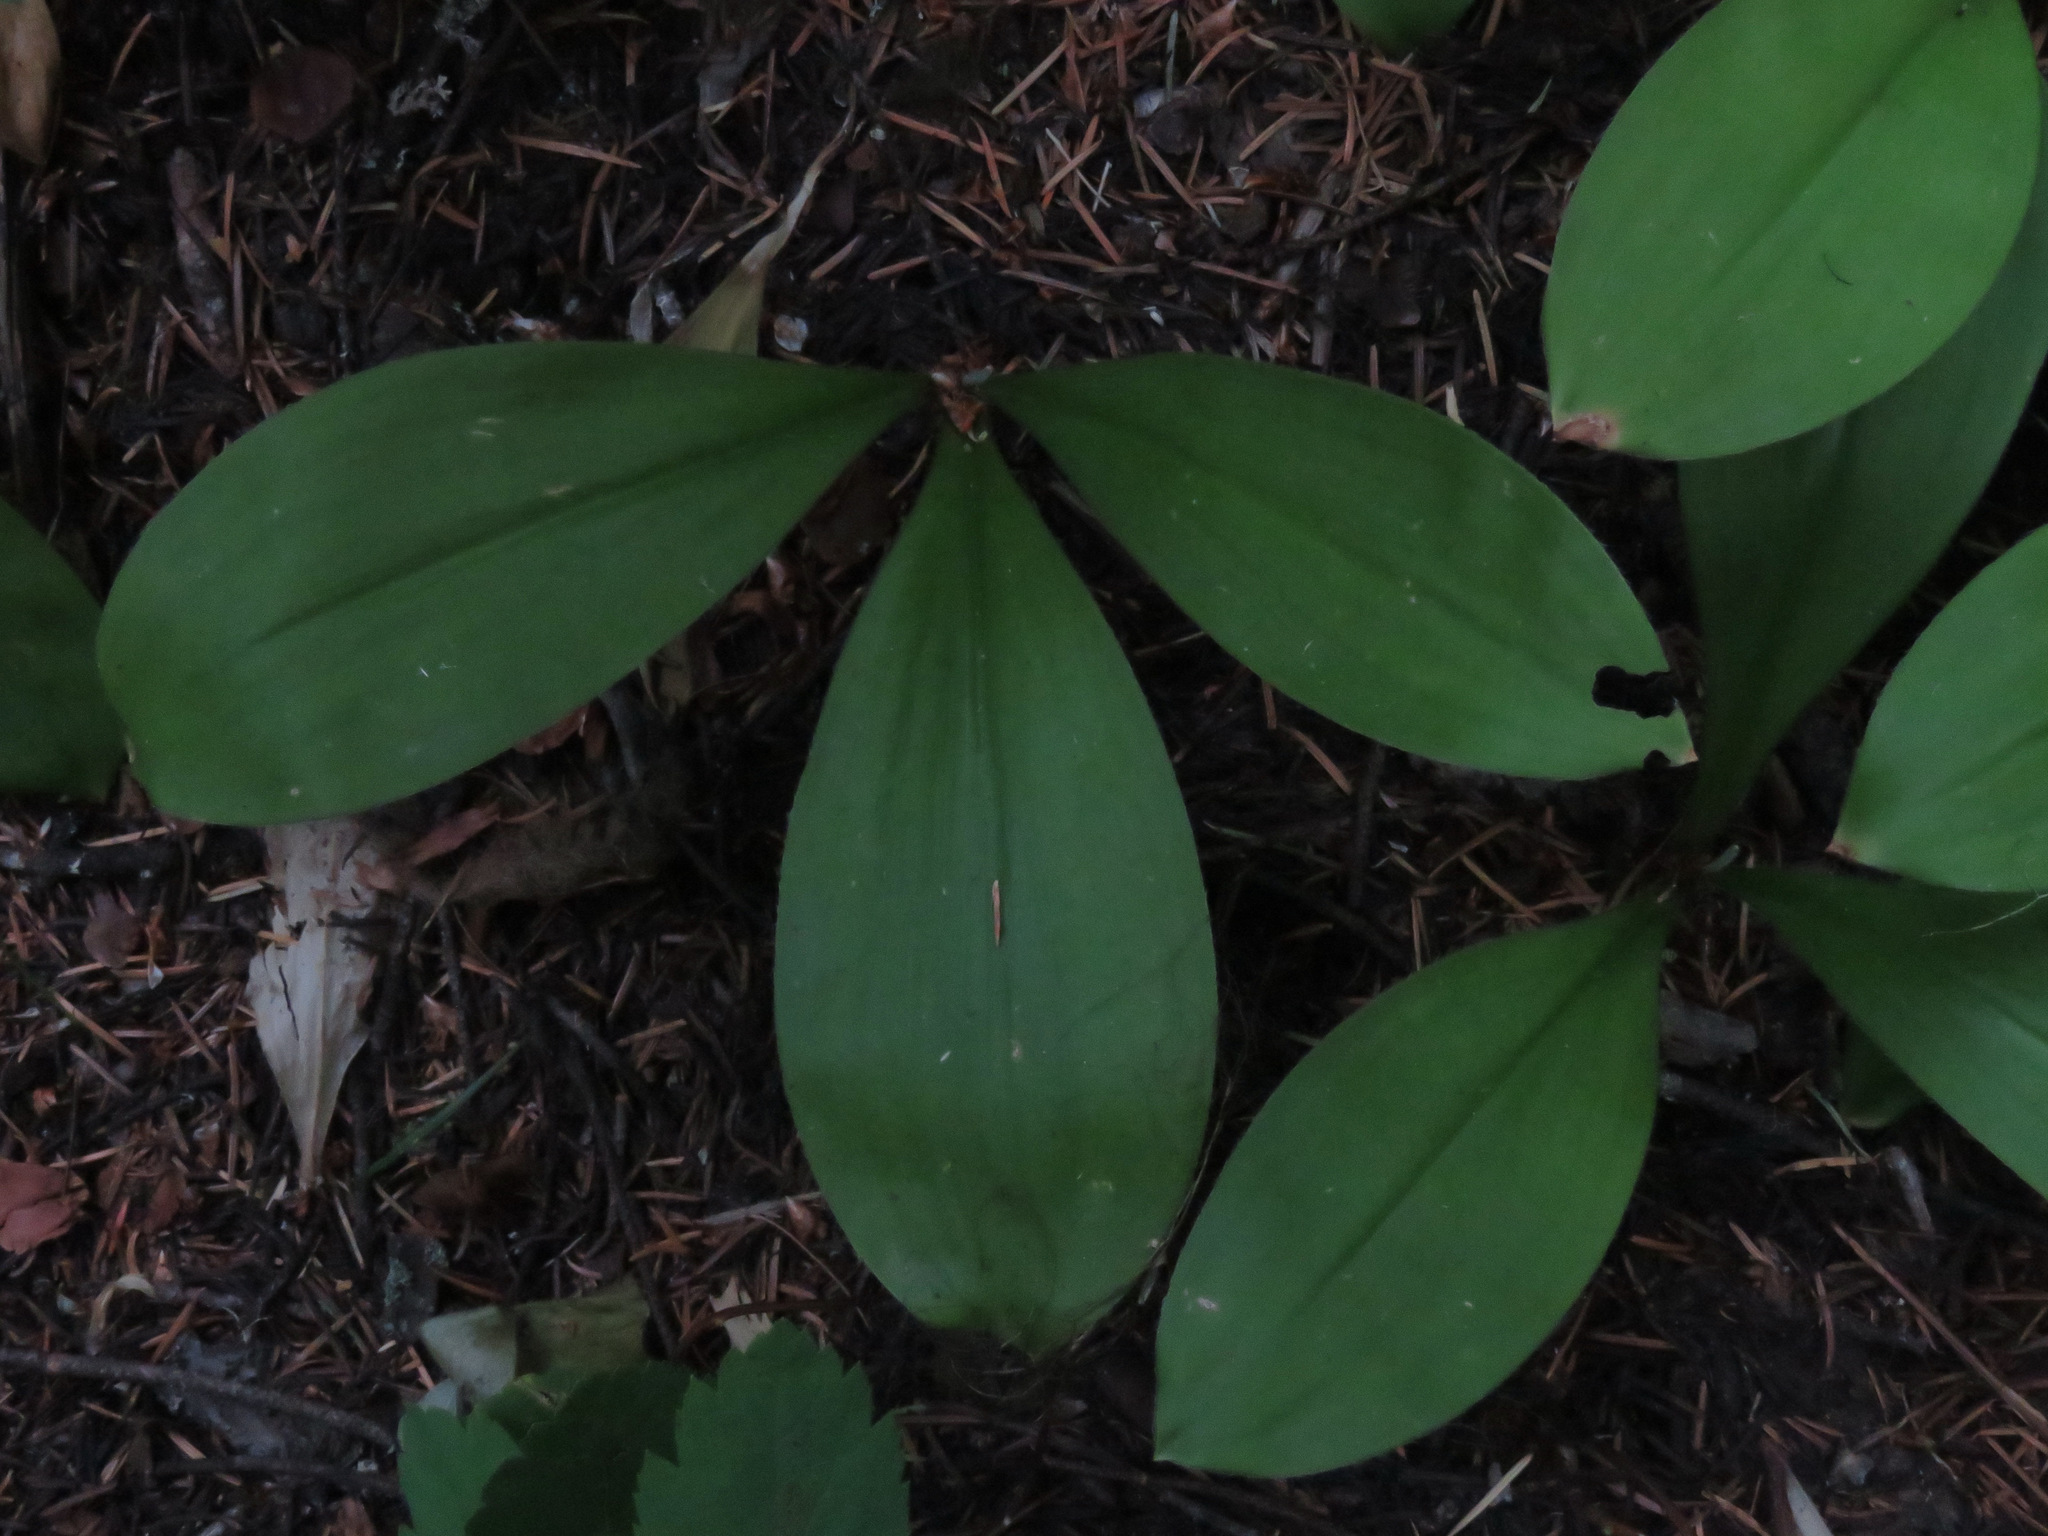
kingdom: Plantae
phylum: Tracheophyta
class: Liliopsida
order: Liliales
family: Liliaceae
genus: Clintonia
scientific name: Clintonia uniflora
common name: Queen's cup
